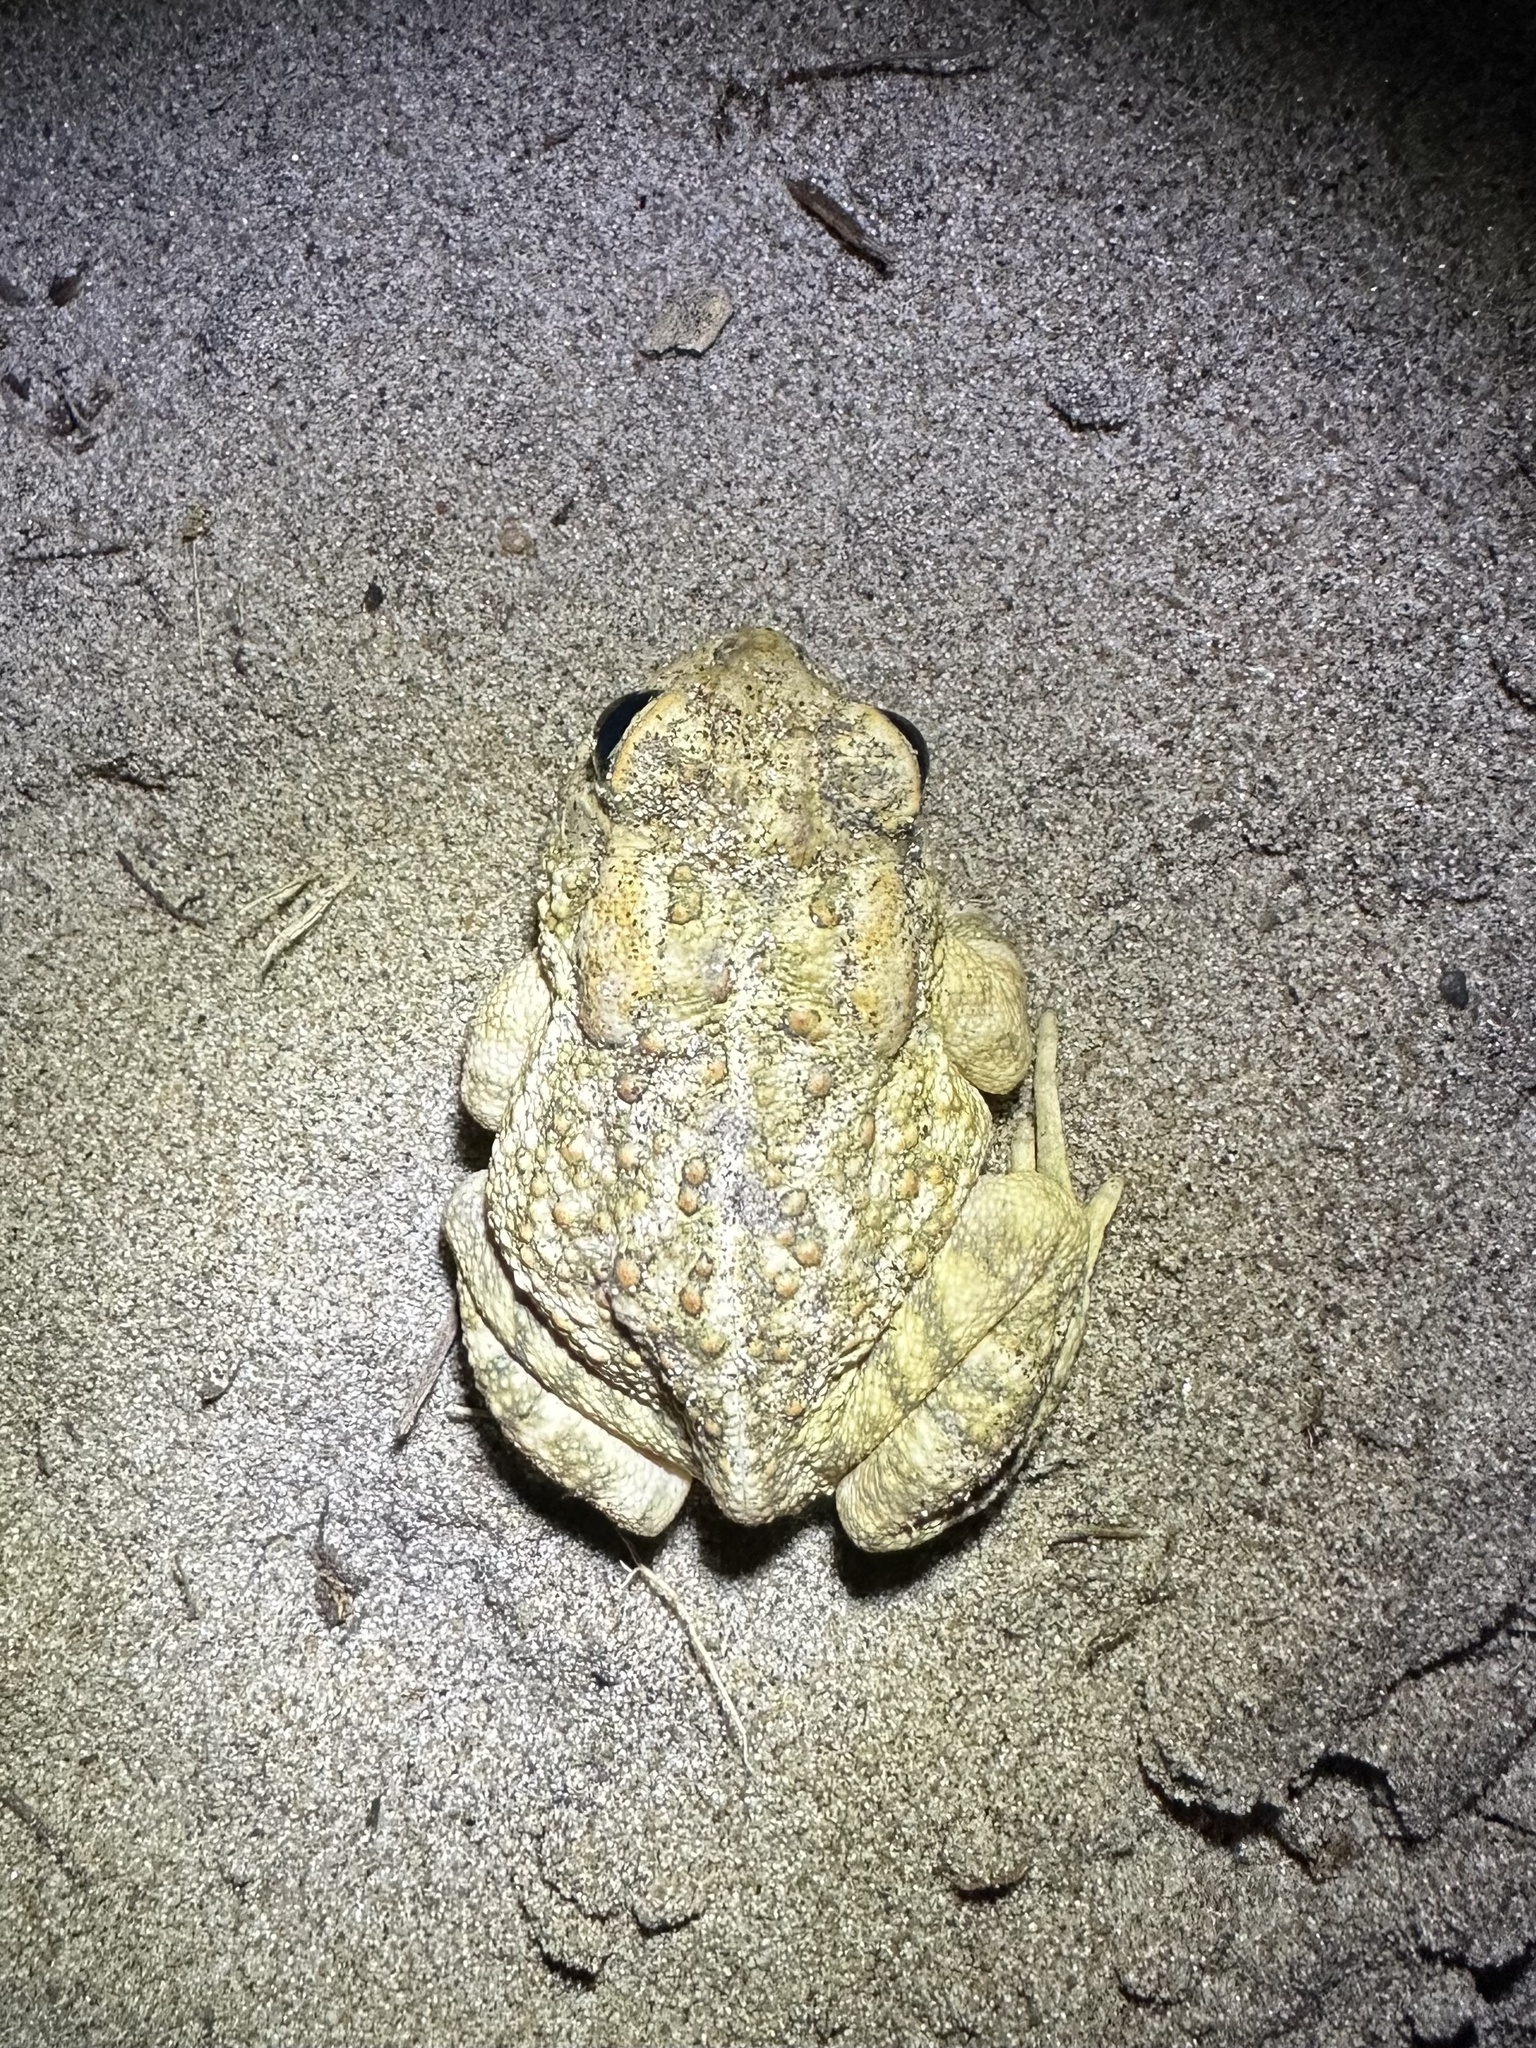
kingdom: Animalia
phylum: Chordata
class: Amphibia
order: Anura
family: Bufonidae
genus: Anaxyrus
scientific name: Anaxyrus fowleri
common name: Fowler's toad
